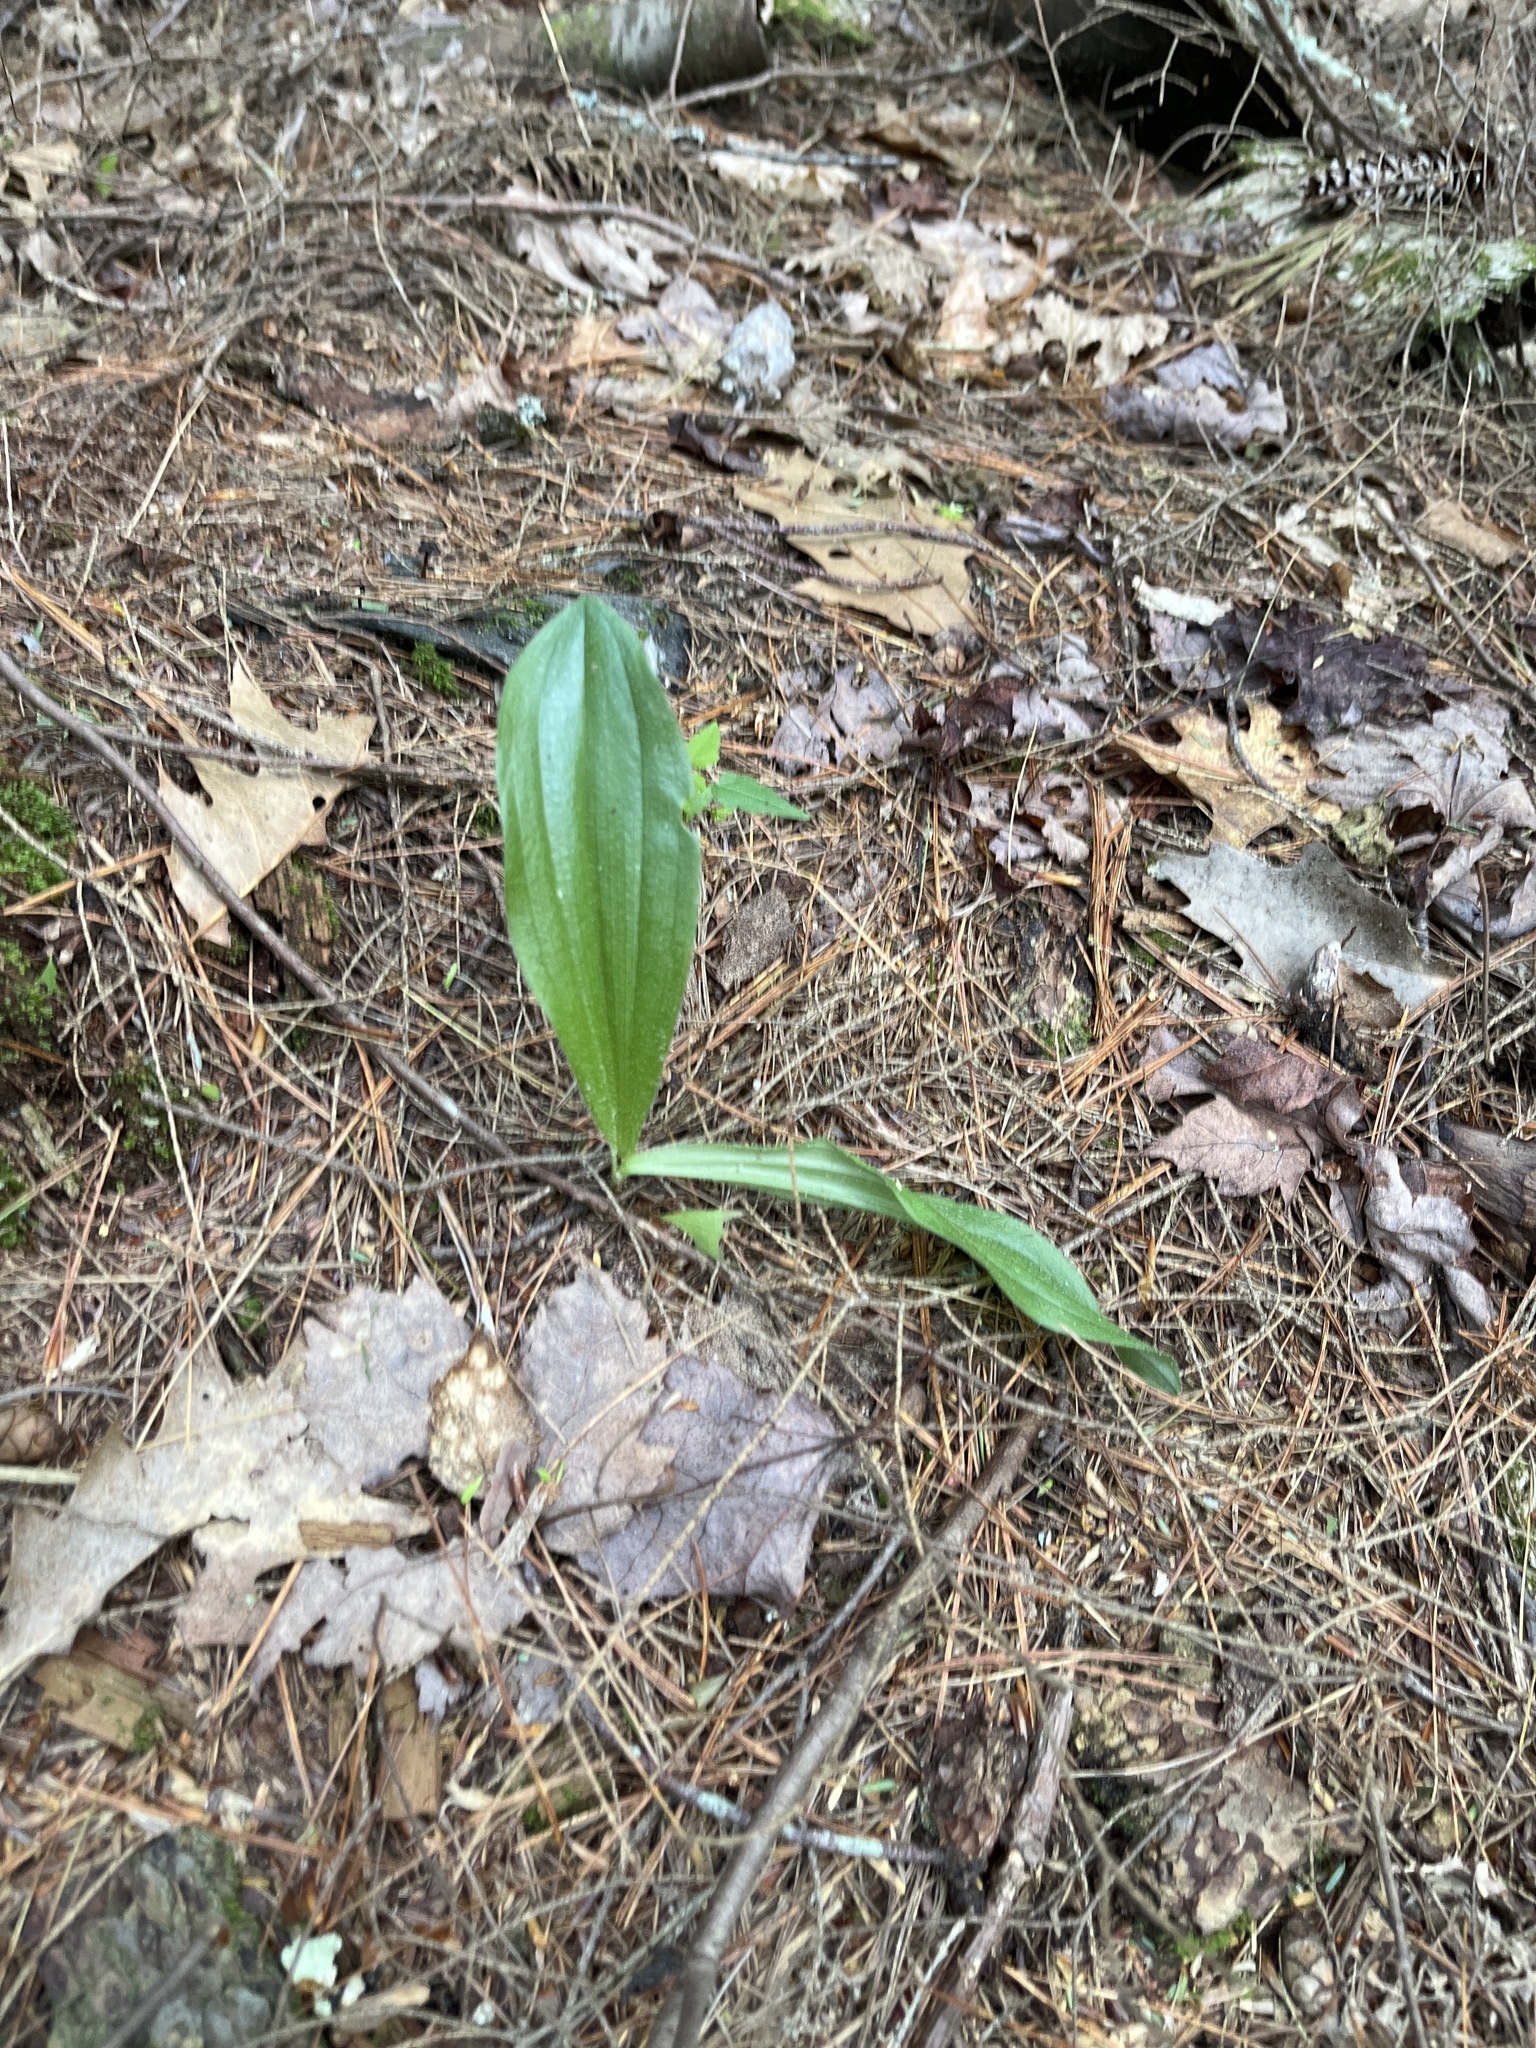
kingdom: Plantae
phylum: Tracheophyta
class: Liliopsida
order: Asparagales
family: Orchidaceae
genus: Cypripedium
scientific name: Cypripedium acaule
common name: Pink lady's-slipper
